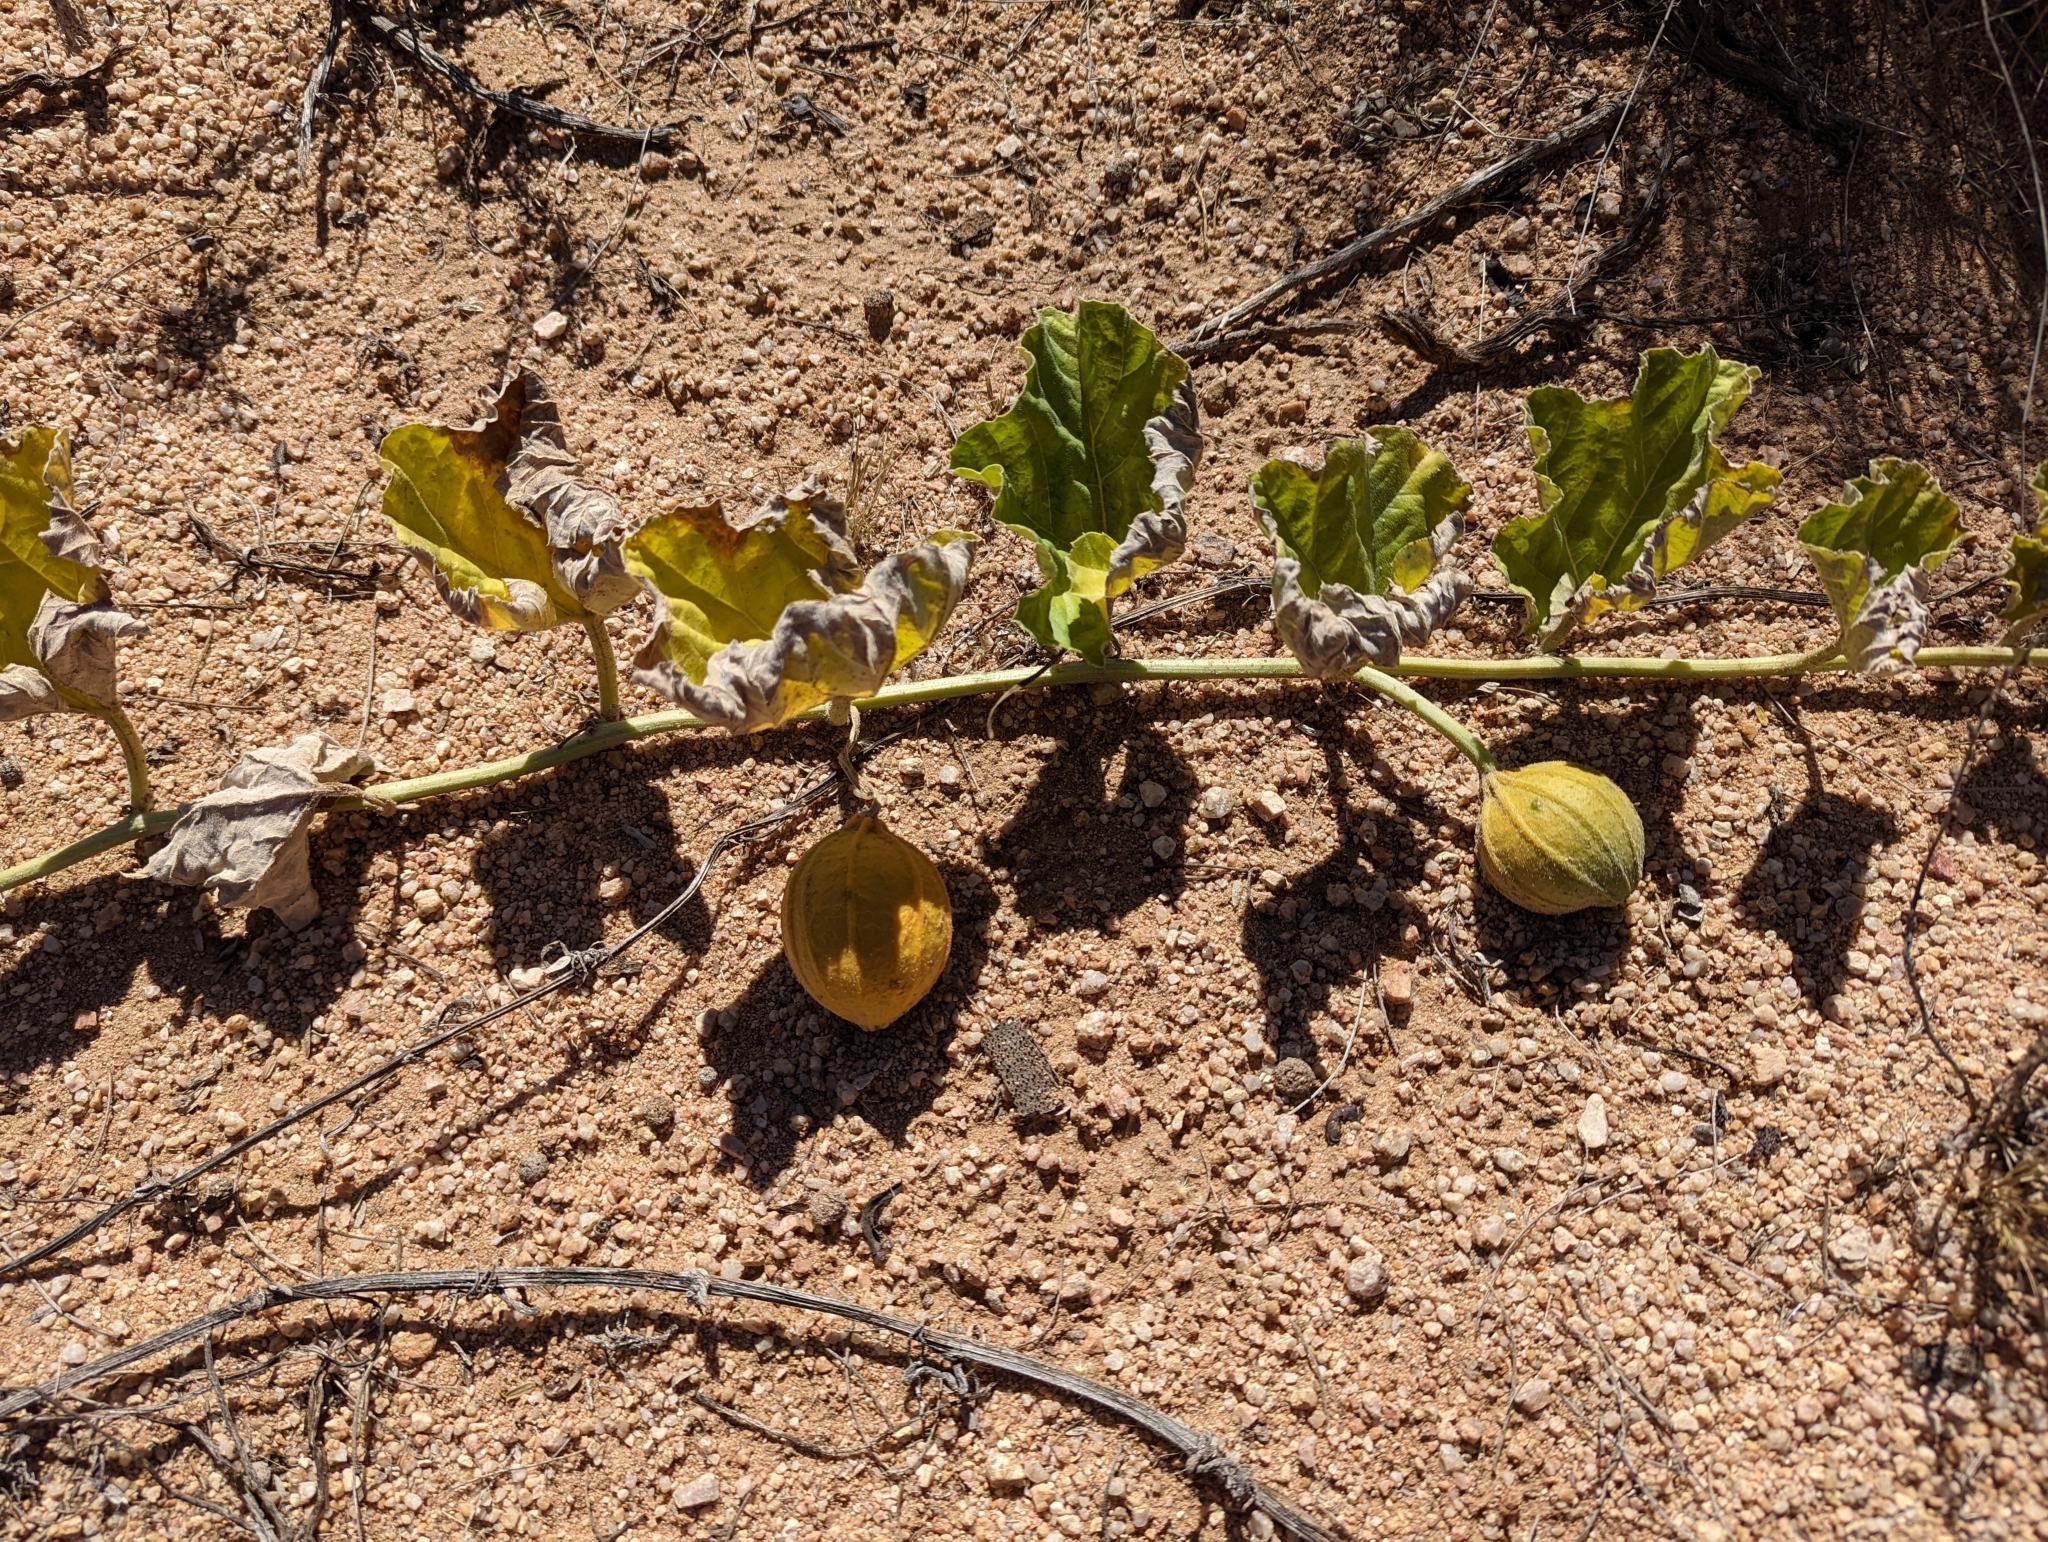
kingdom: Plantae
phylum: Tracheophyta
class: Magnoliopsida
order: Cucurbitales
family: Cucurbitaceae
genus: Apodanthera
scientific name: Apodanthera undulata
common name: Melon-loco
